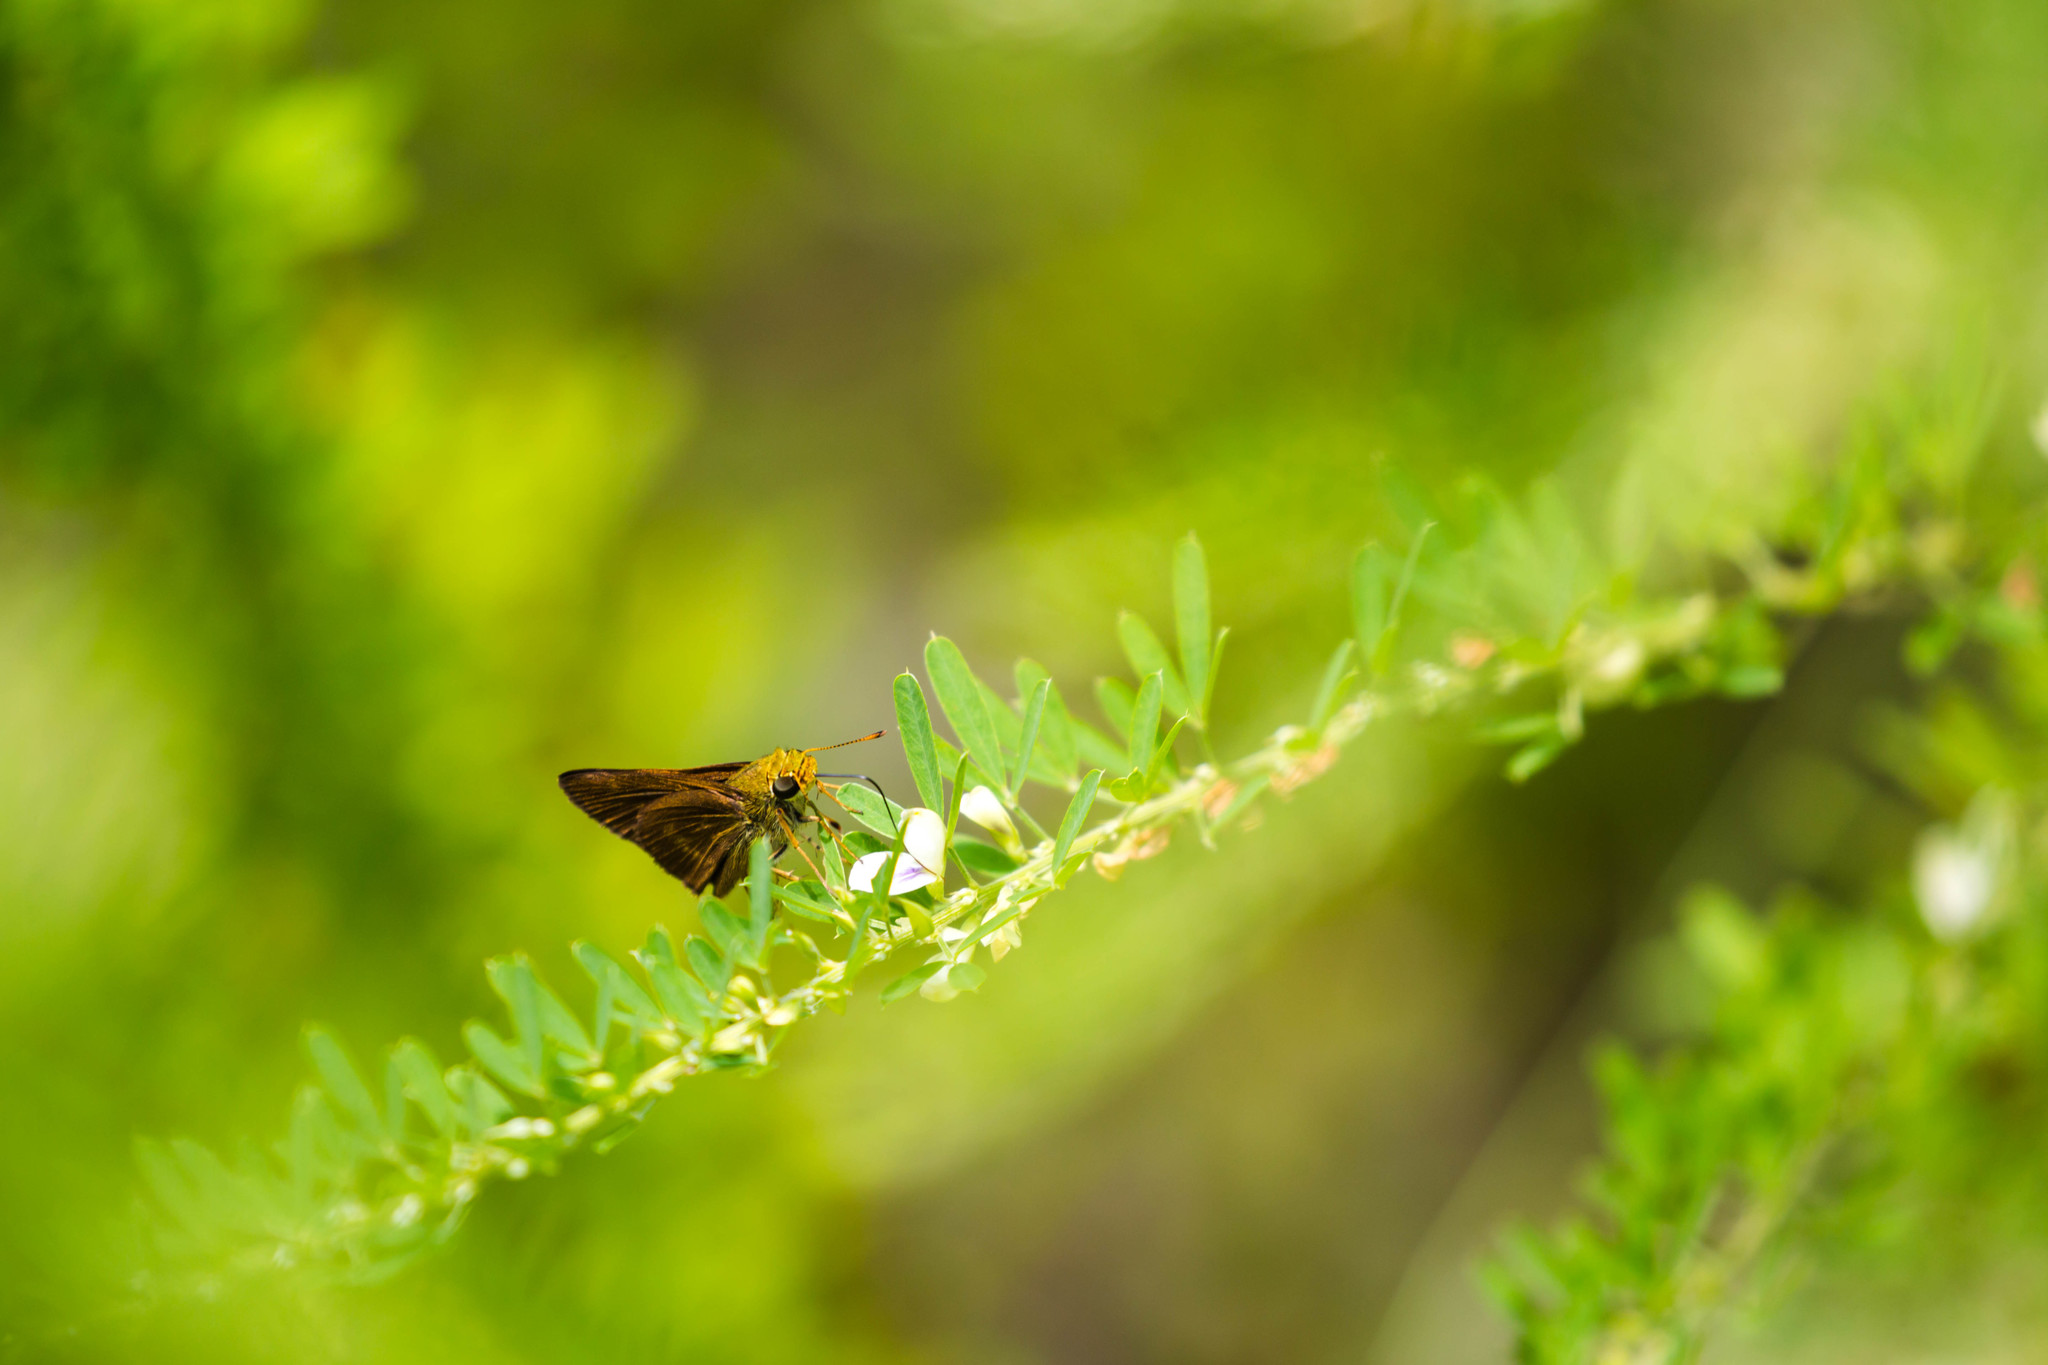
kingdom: Animalia
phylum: Arthropoda
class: Insecta
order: Lepidoptera
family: Hesperiidae
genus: Polites
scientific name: Polites egeremet
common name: Northern broken-dash
